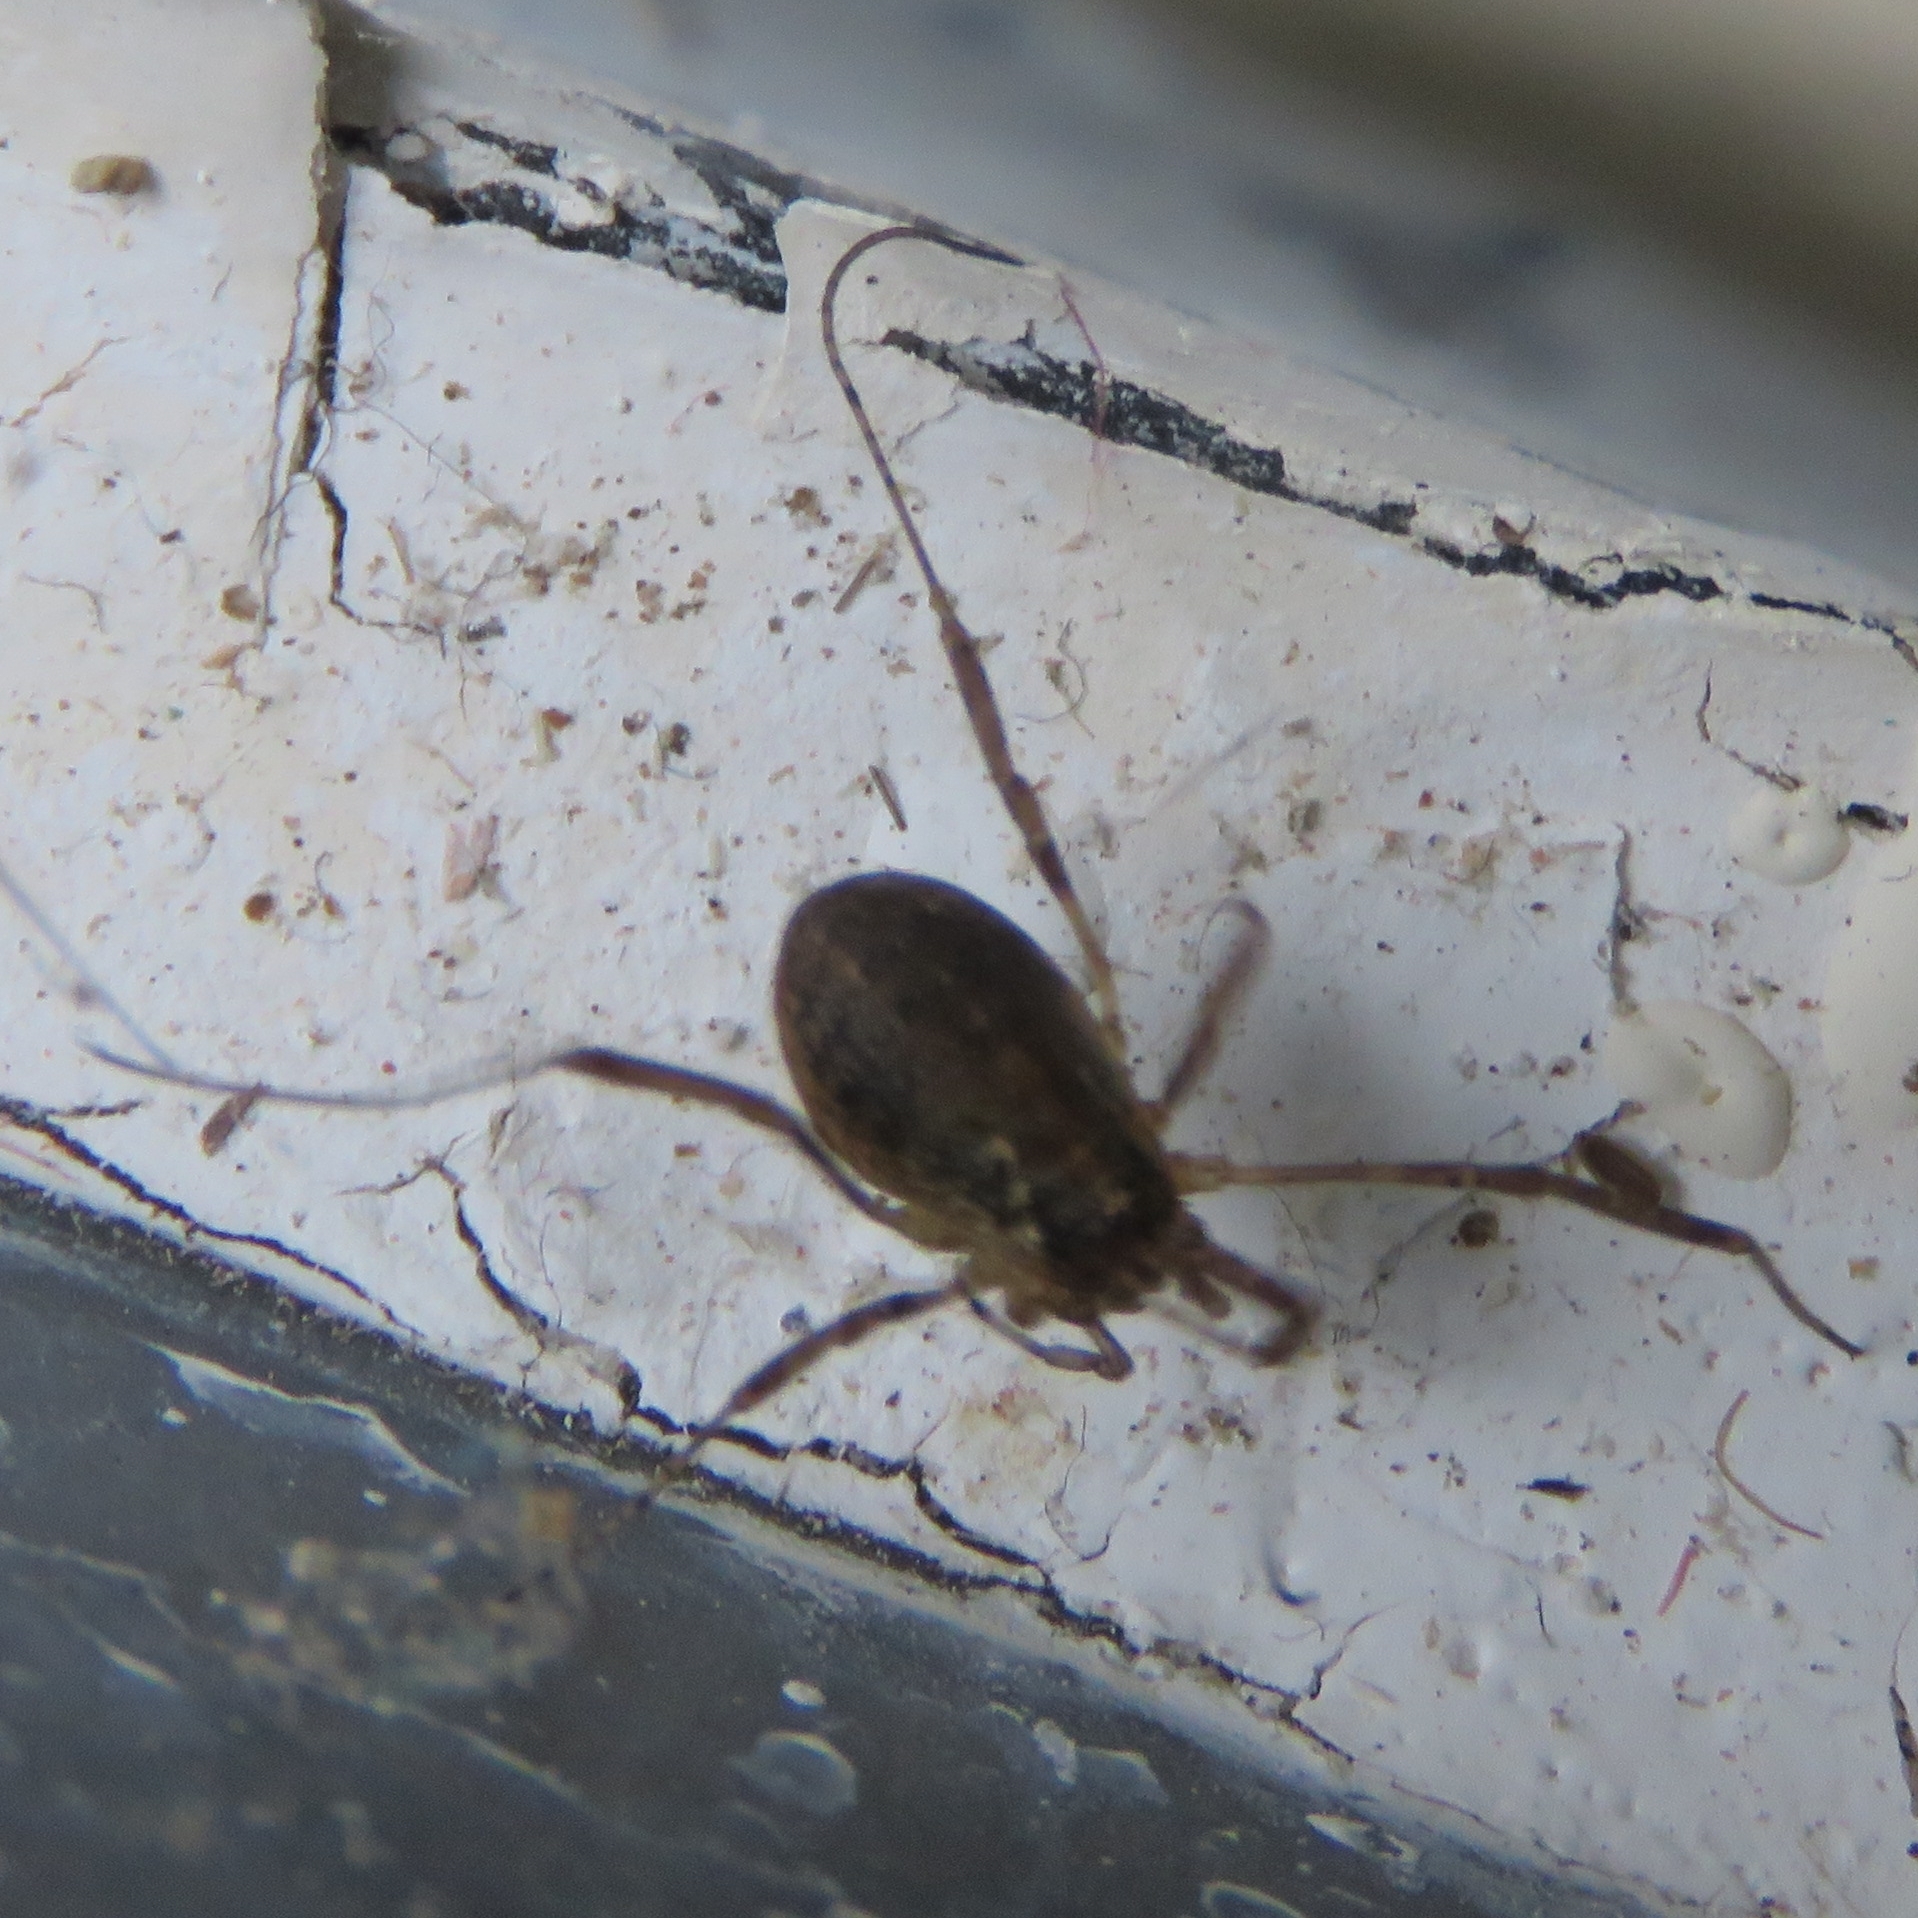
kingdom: Animalia
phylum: Arthropoda
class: Arachnida
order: Opiliones
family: Phalangiidae
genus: Oligolophus
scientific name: Oligolophus hansenii
